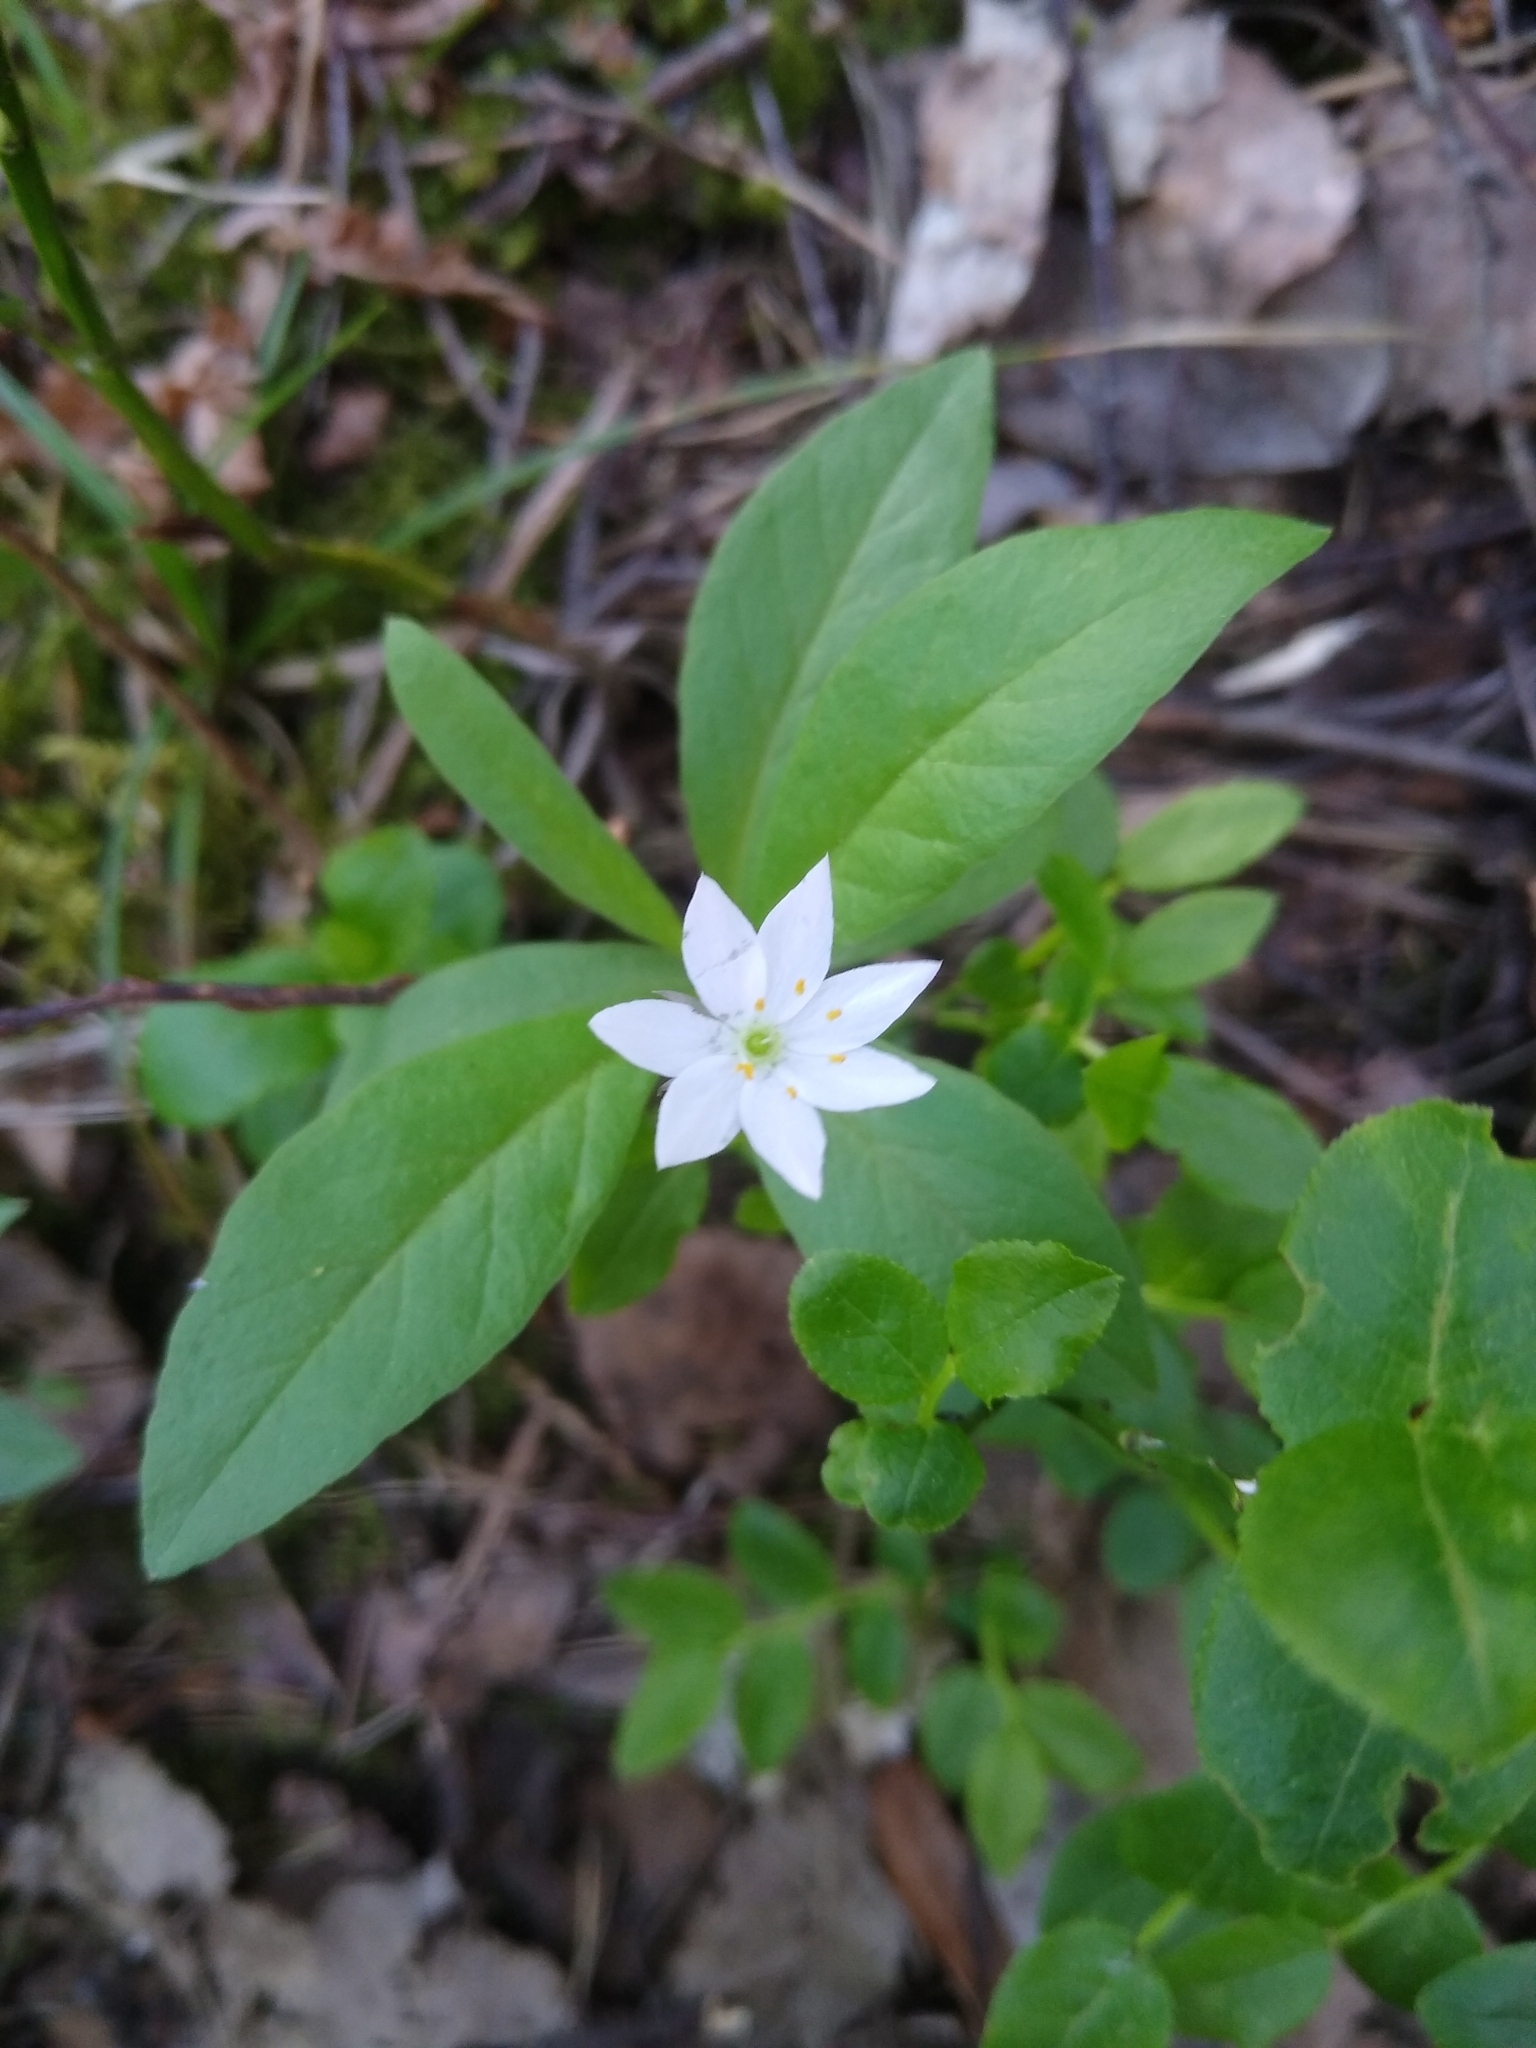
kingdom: Plantae
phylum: Tracheophyta
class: Magnoliopsida
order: Ericales
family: Primulaceae
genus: Lysimachia
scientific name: Lysimachia europaea
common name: Arctic starflower
